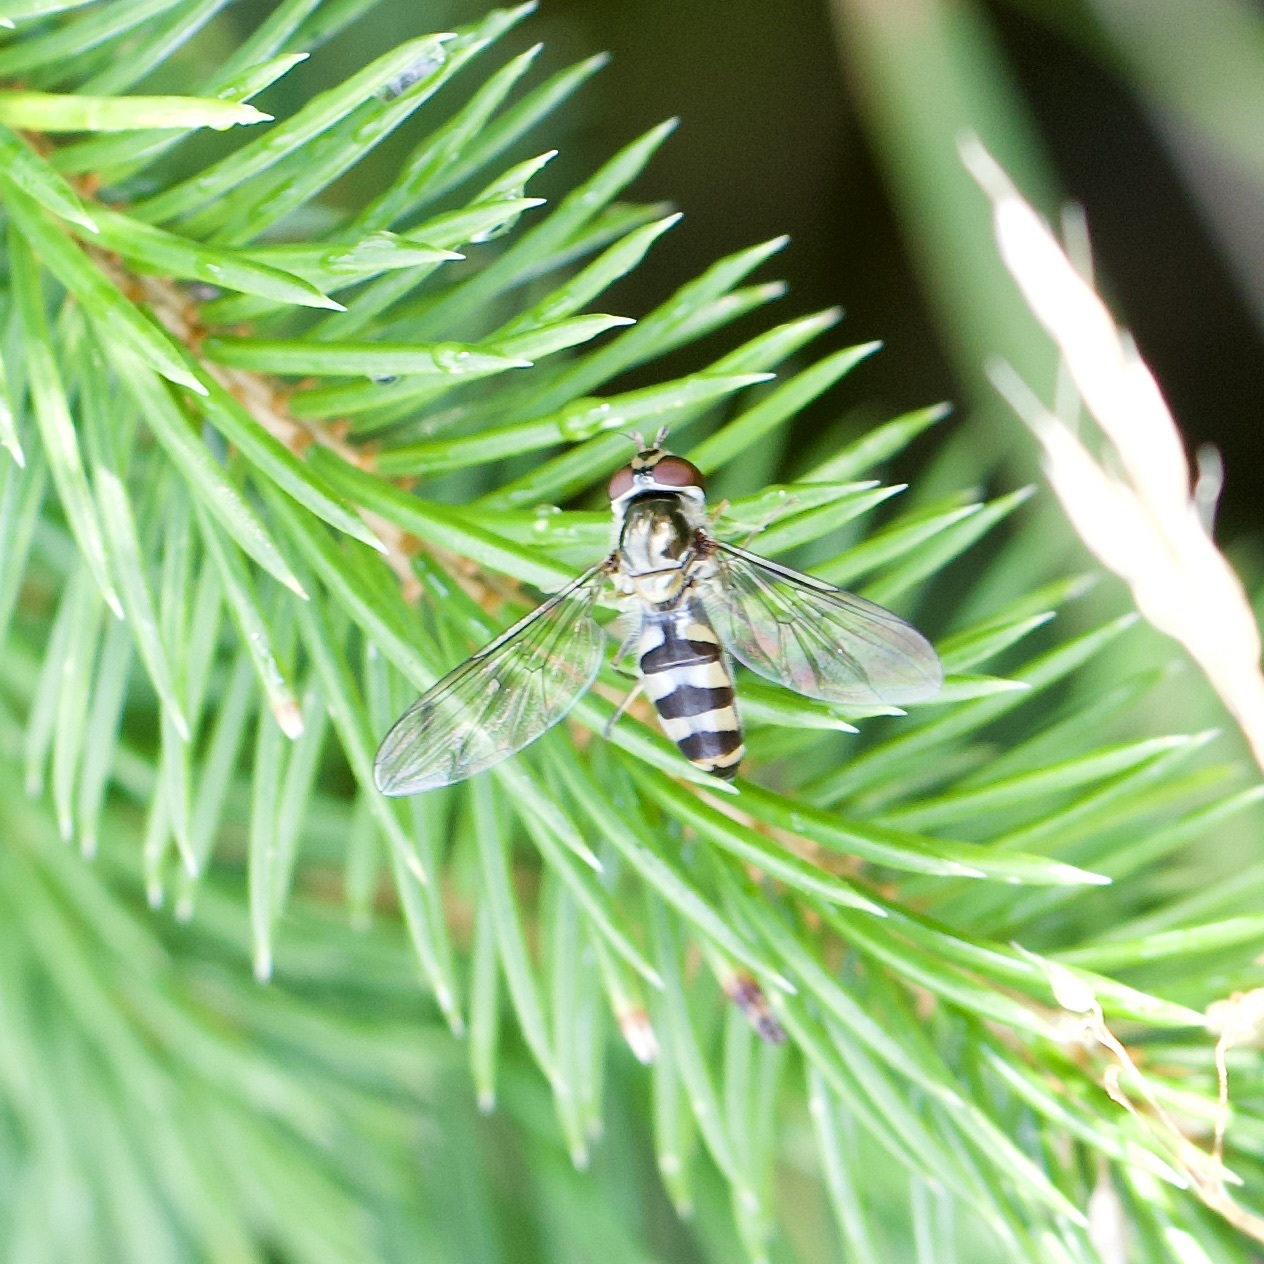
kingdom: Animalia
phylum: Arthropoda
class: Insecta
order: Diptera
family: Syrphidae
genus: Meliscaeva
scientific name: Meliscaeva auricollis
